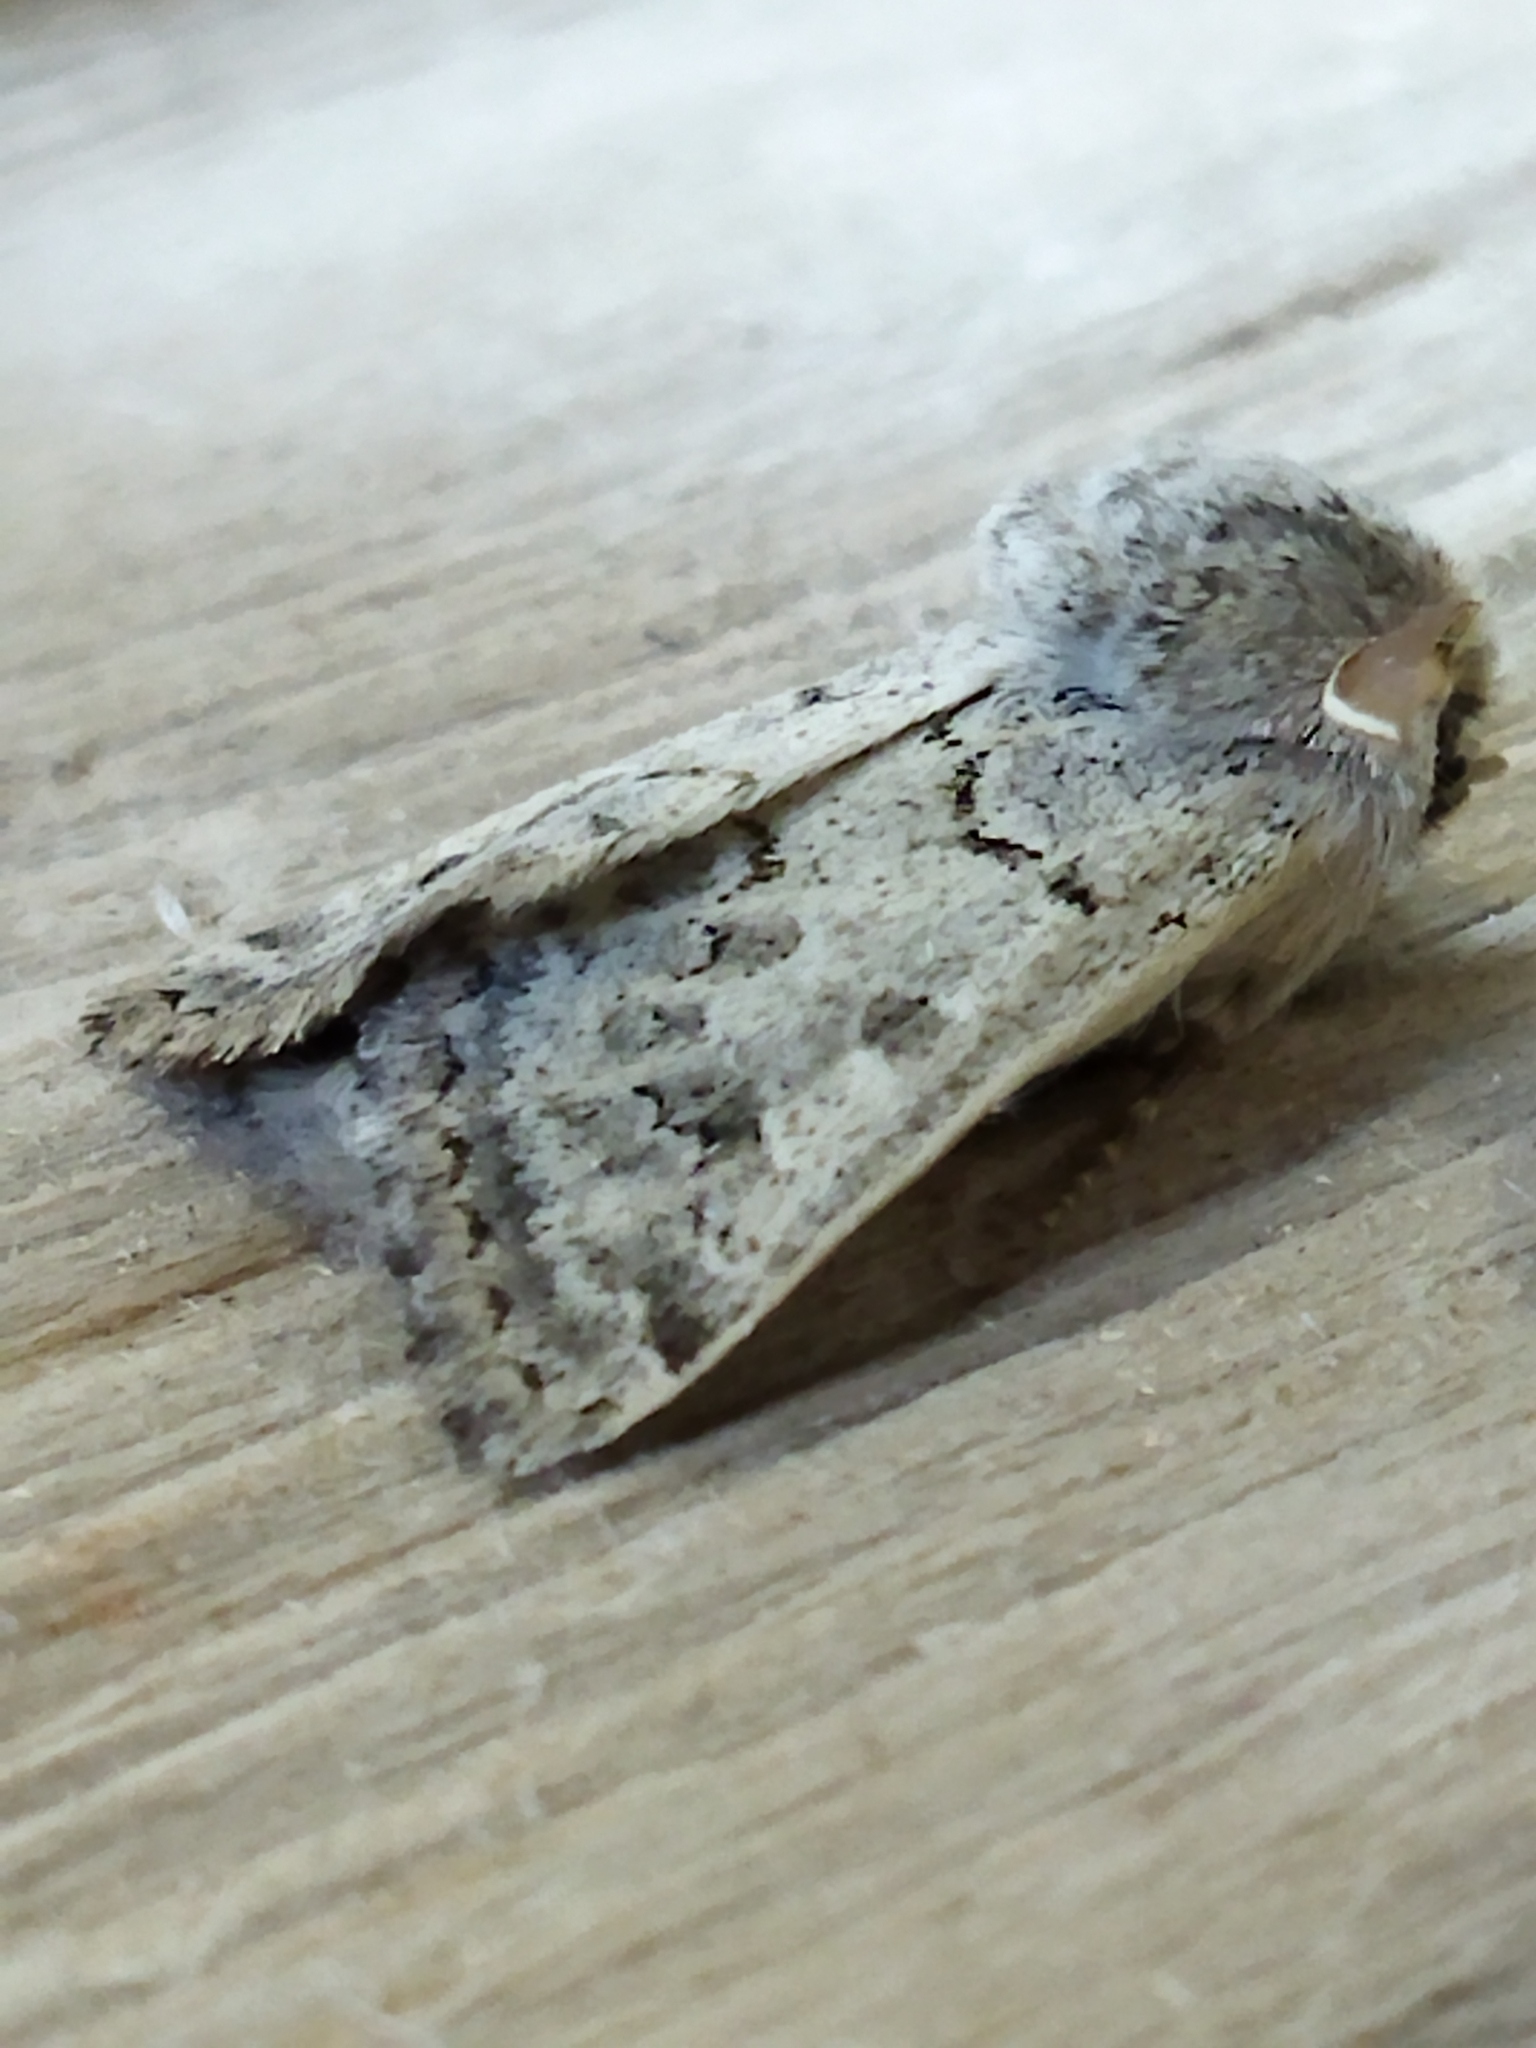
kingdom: Animalia
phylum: Arthropoda
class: Insecta
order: Lepidoptera
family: Noctuidae
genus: Episema
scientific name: Episema lederi
